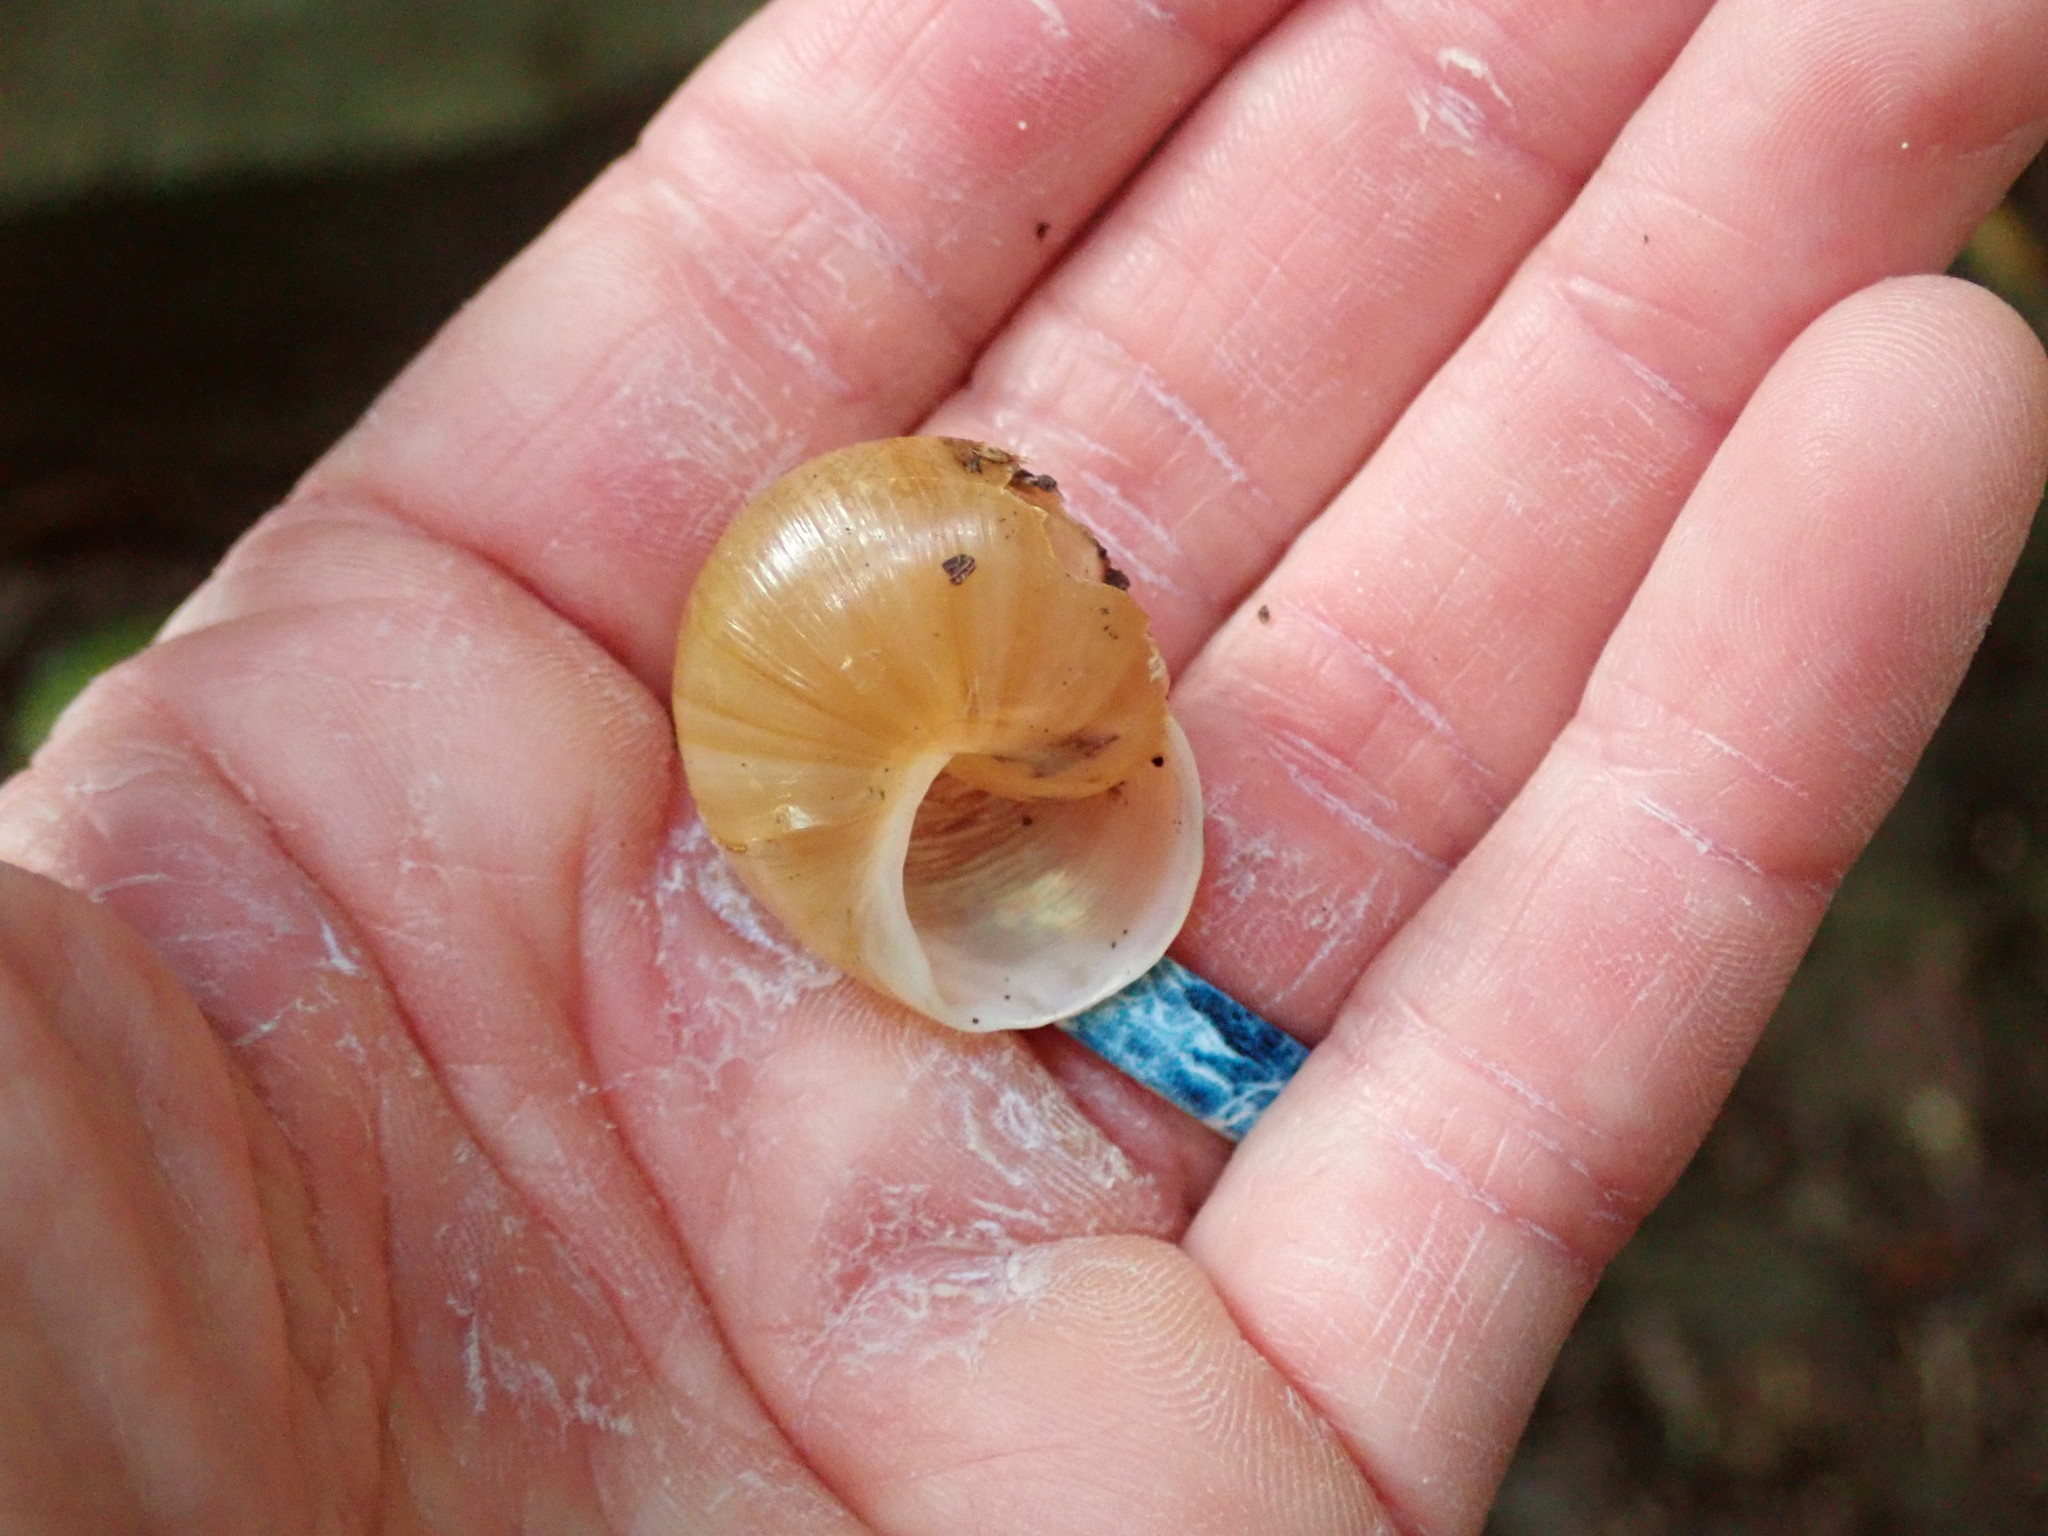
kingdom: Animalia
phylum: Mollusca
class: Gastropoda
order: Stylommatophora
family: Zachrysiidae
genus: Zachrysia
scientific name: Zachrysia provisoria
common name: Garden zachrysia
